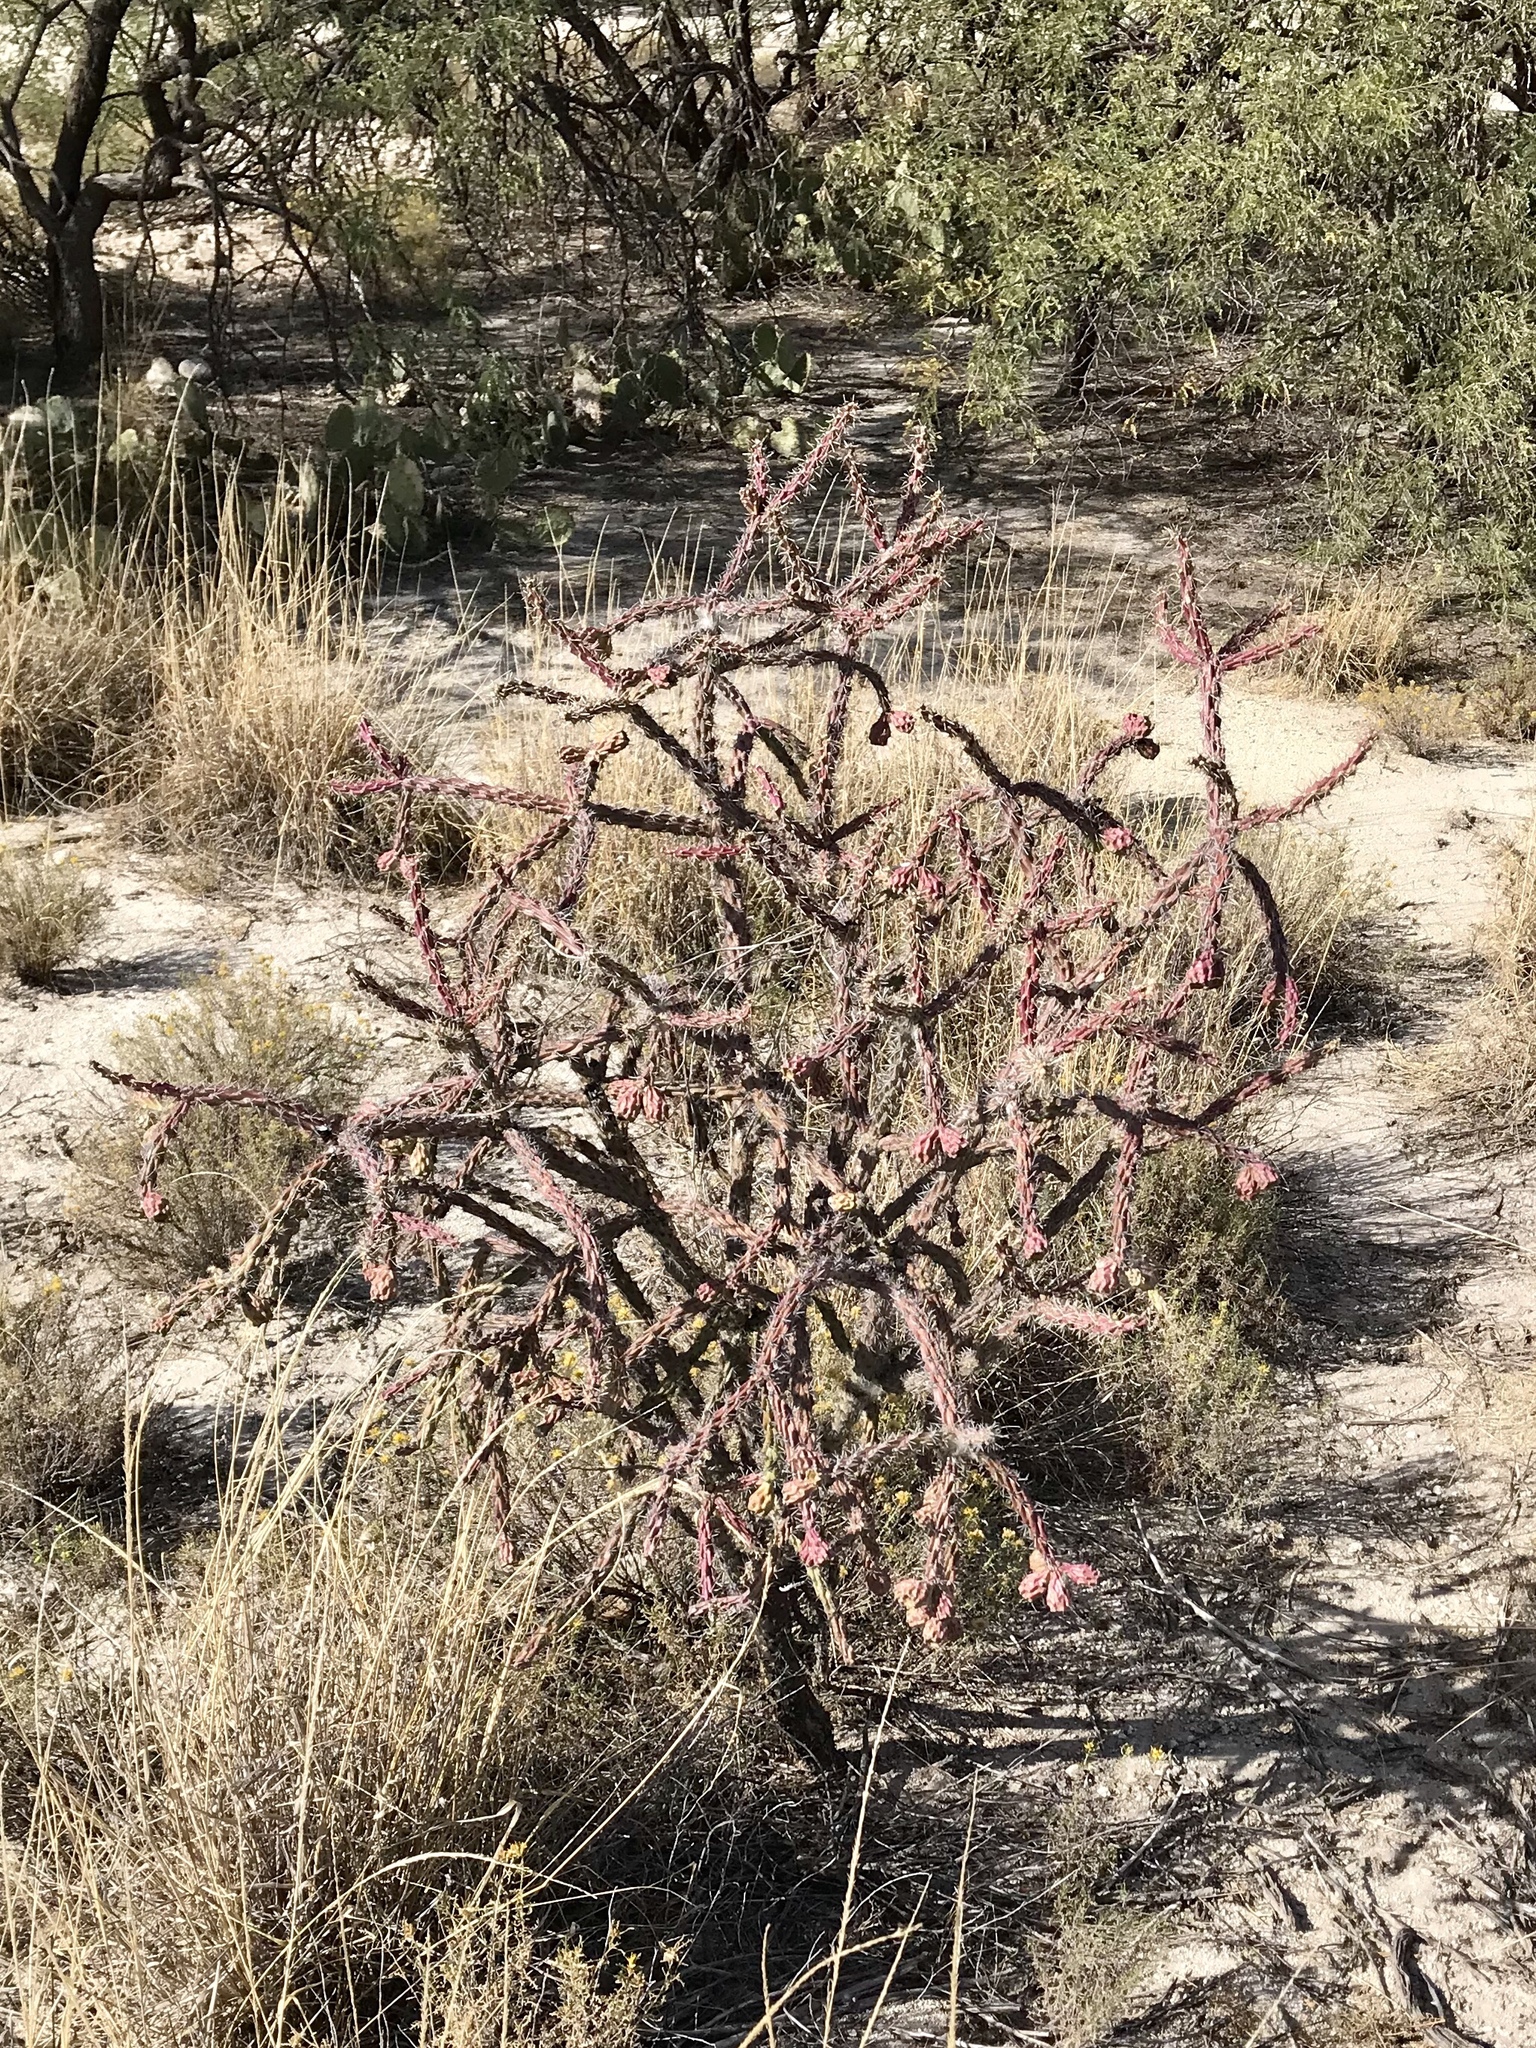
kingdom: Plantae
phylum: Tracheophyta
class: Magnoliopsida
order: Caryophyllales
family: Cactaceae
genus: Cylindropuntia
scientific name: Cylindropuntia thurberi
